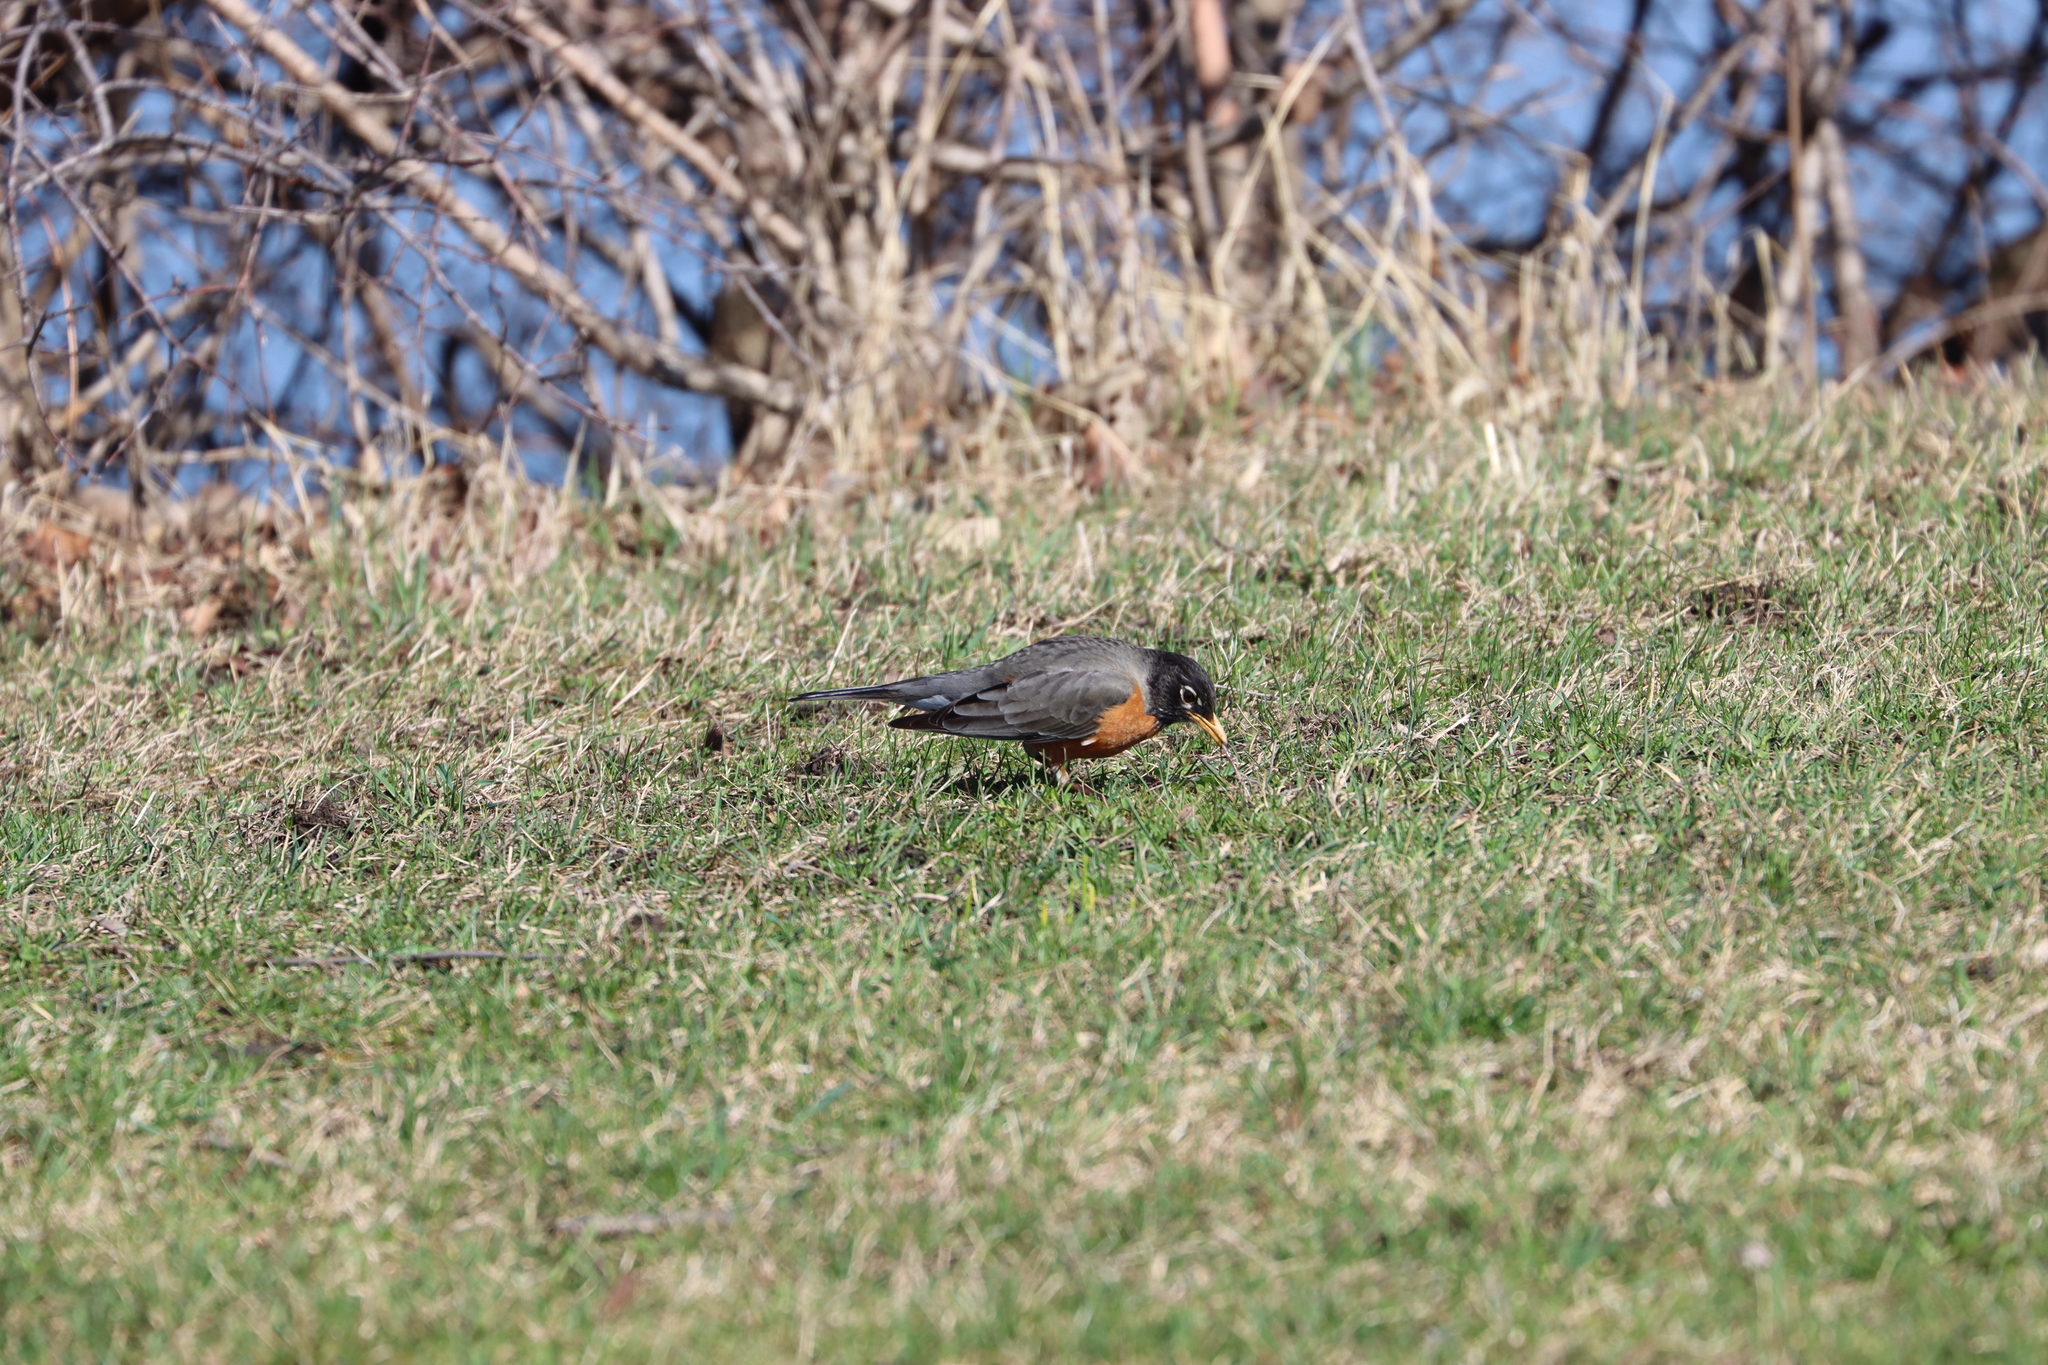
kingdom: Animalia
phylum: Chordata
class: Aves
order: Passeriformes
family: Turdidae
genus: Turdus
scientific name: Turdus migratorius
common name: American robin
